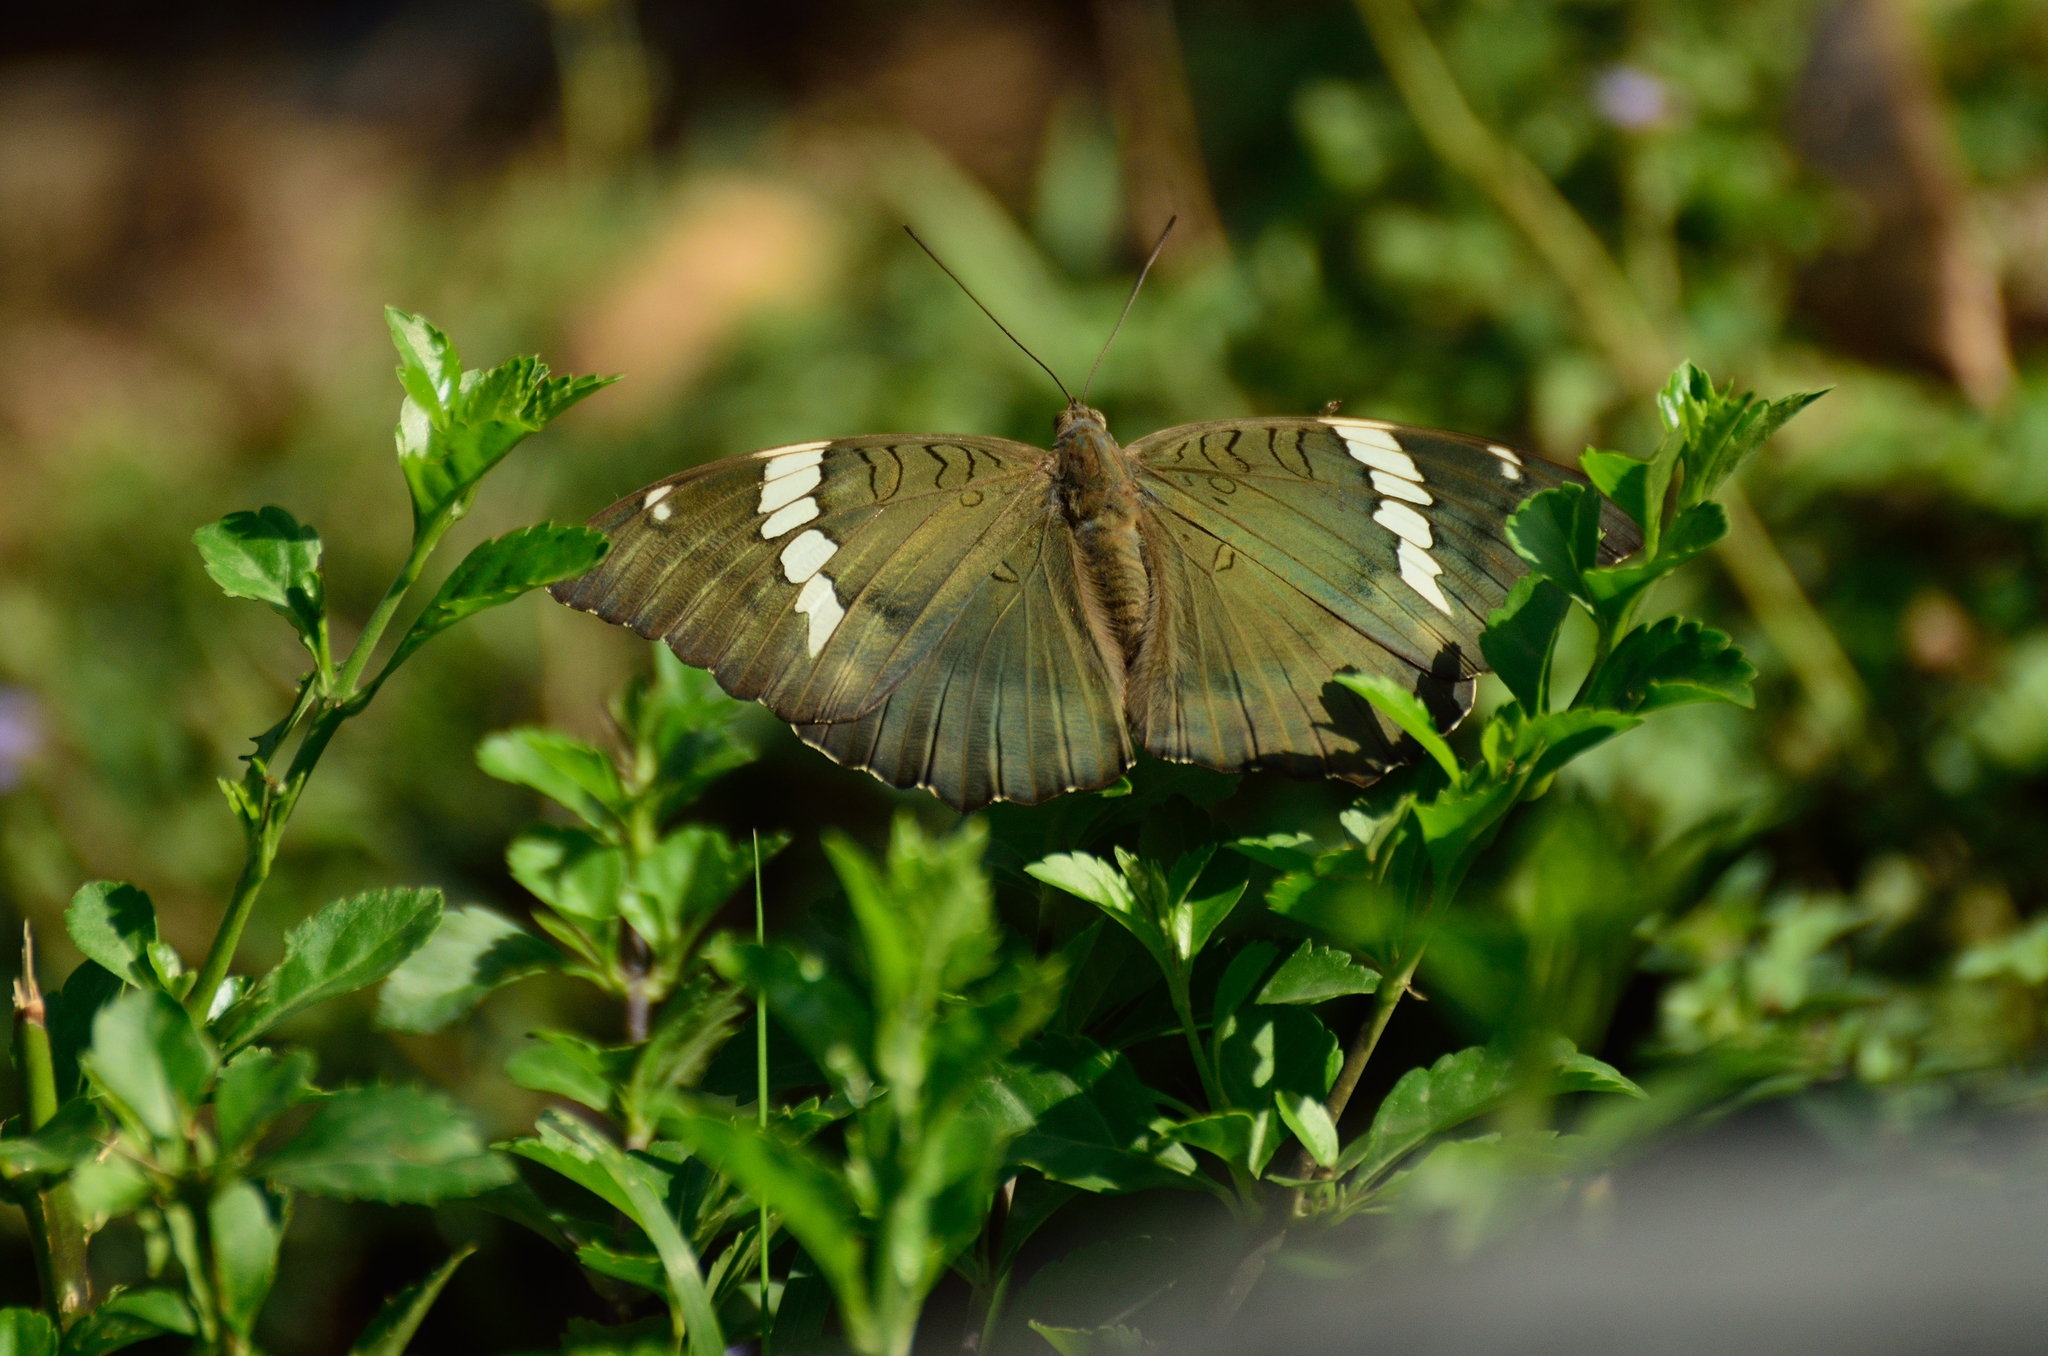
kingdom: Animalia
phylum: Arthropoda
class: Insecta
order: Lepidoptera
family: Nymphalidae
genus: Euthalia
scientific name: Euthalia patala
